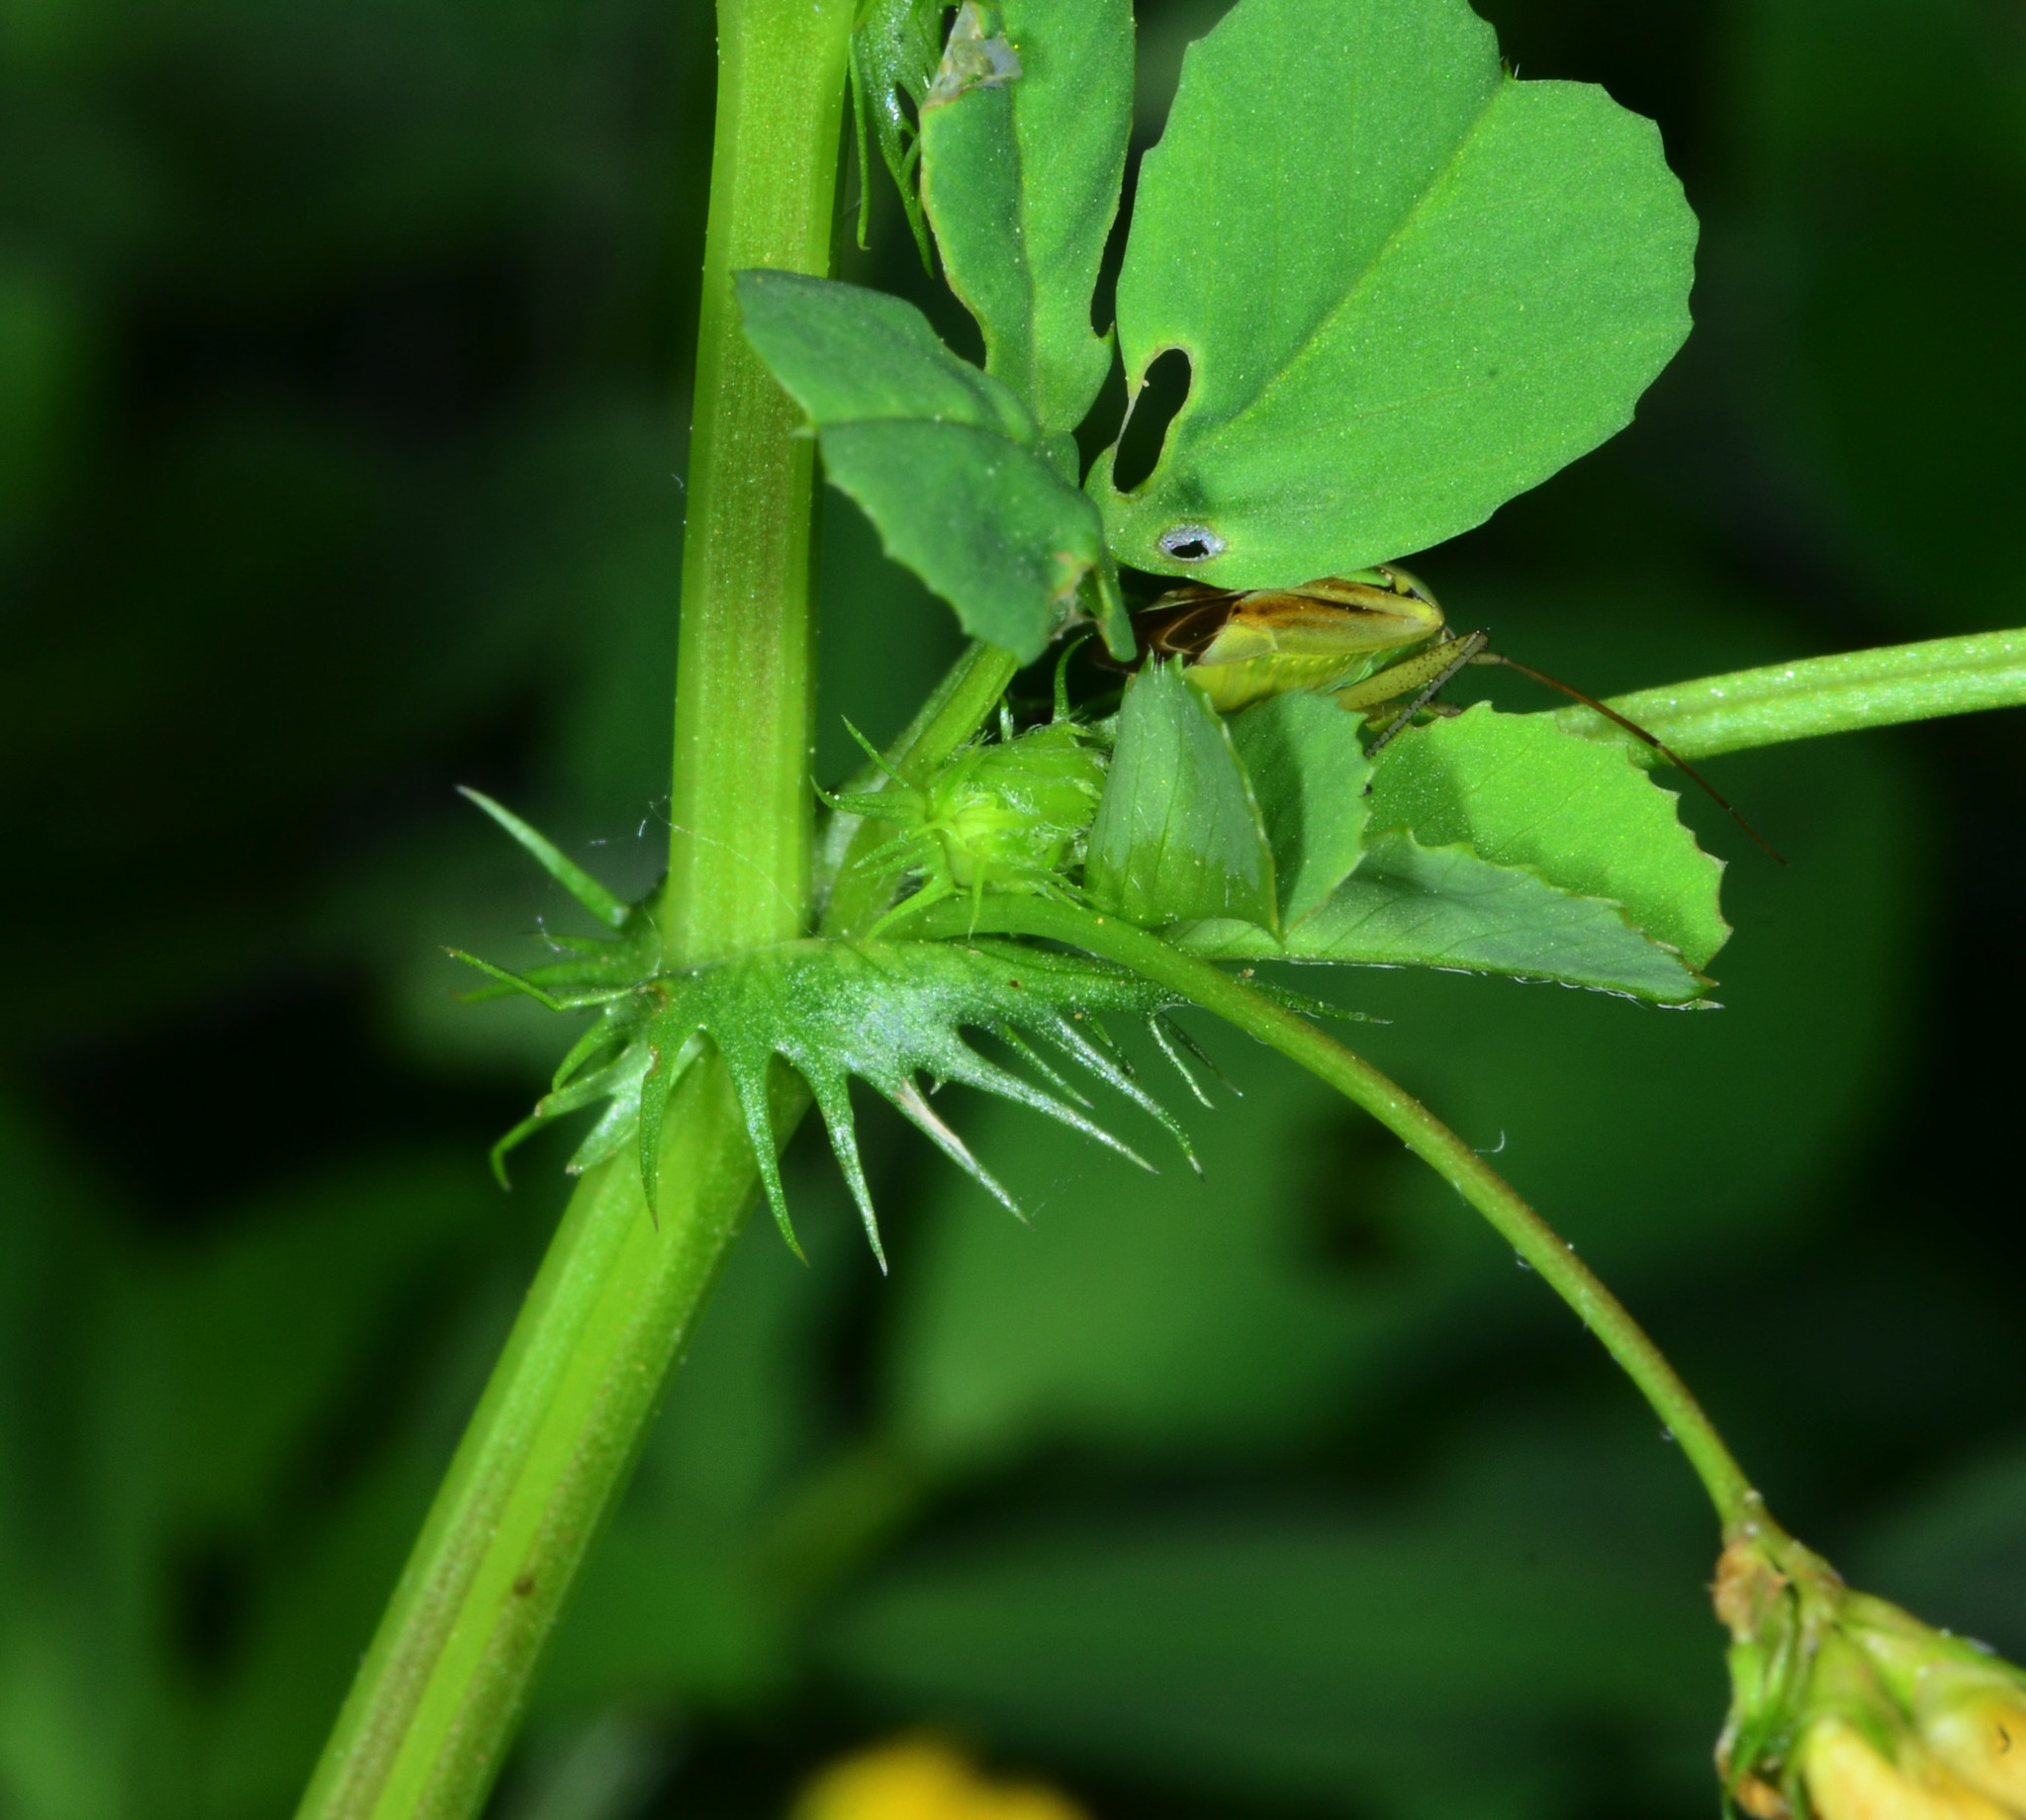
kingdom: Plantae
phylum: Tracheophyta
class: Magnoliopsida
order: Fabales
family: Fabaceae
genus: Medicago
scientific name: Medicago polymorpha
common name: Burclover
